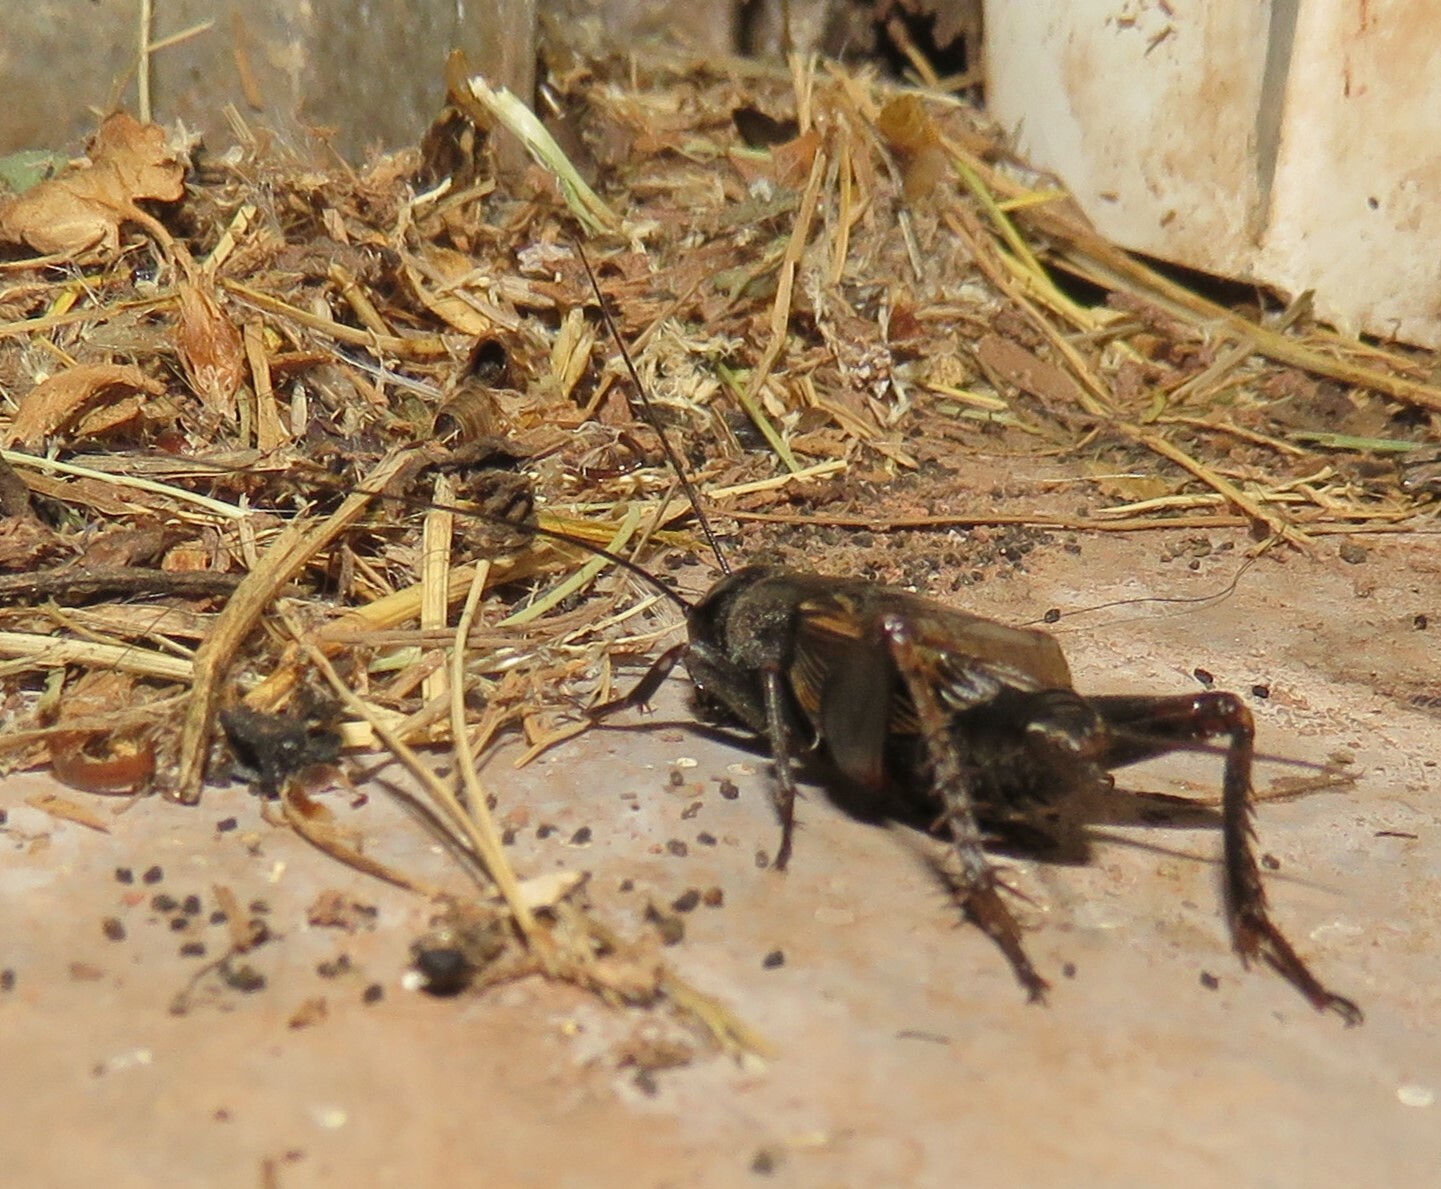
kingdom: Animalia
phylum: Arthropoda
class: Insecta
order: Orthoptera
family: Gryllidae
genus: Gryllus
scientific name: Gryllus pennsylvanicus
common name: Fall field cricket
